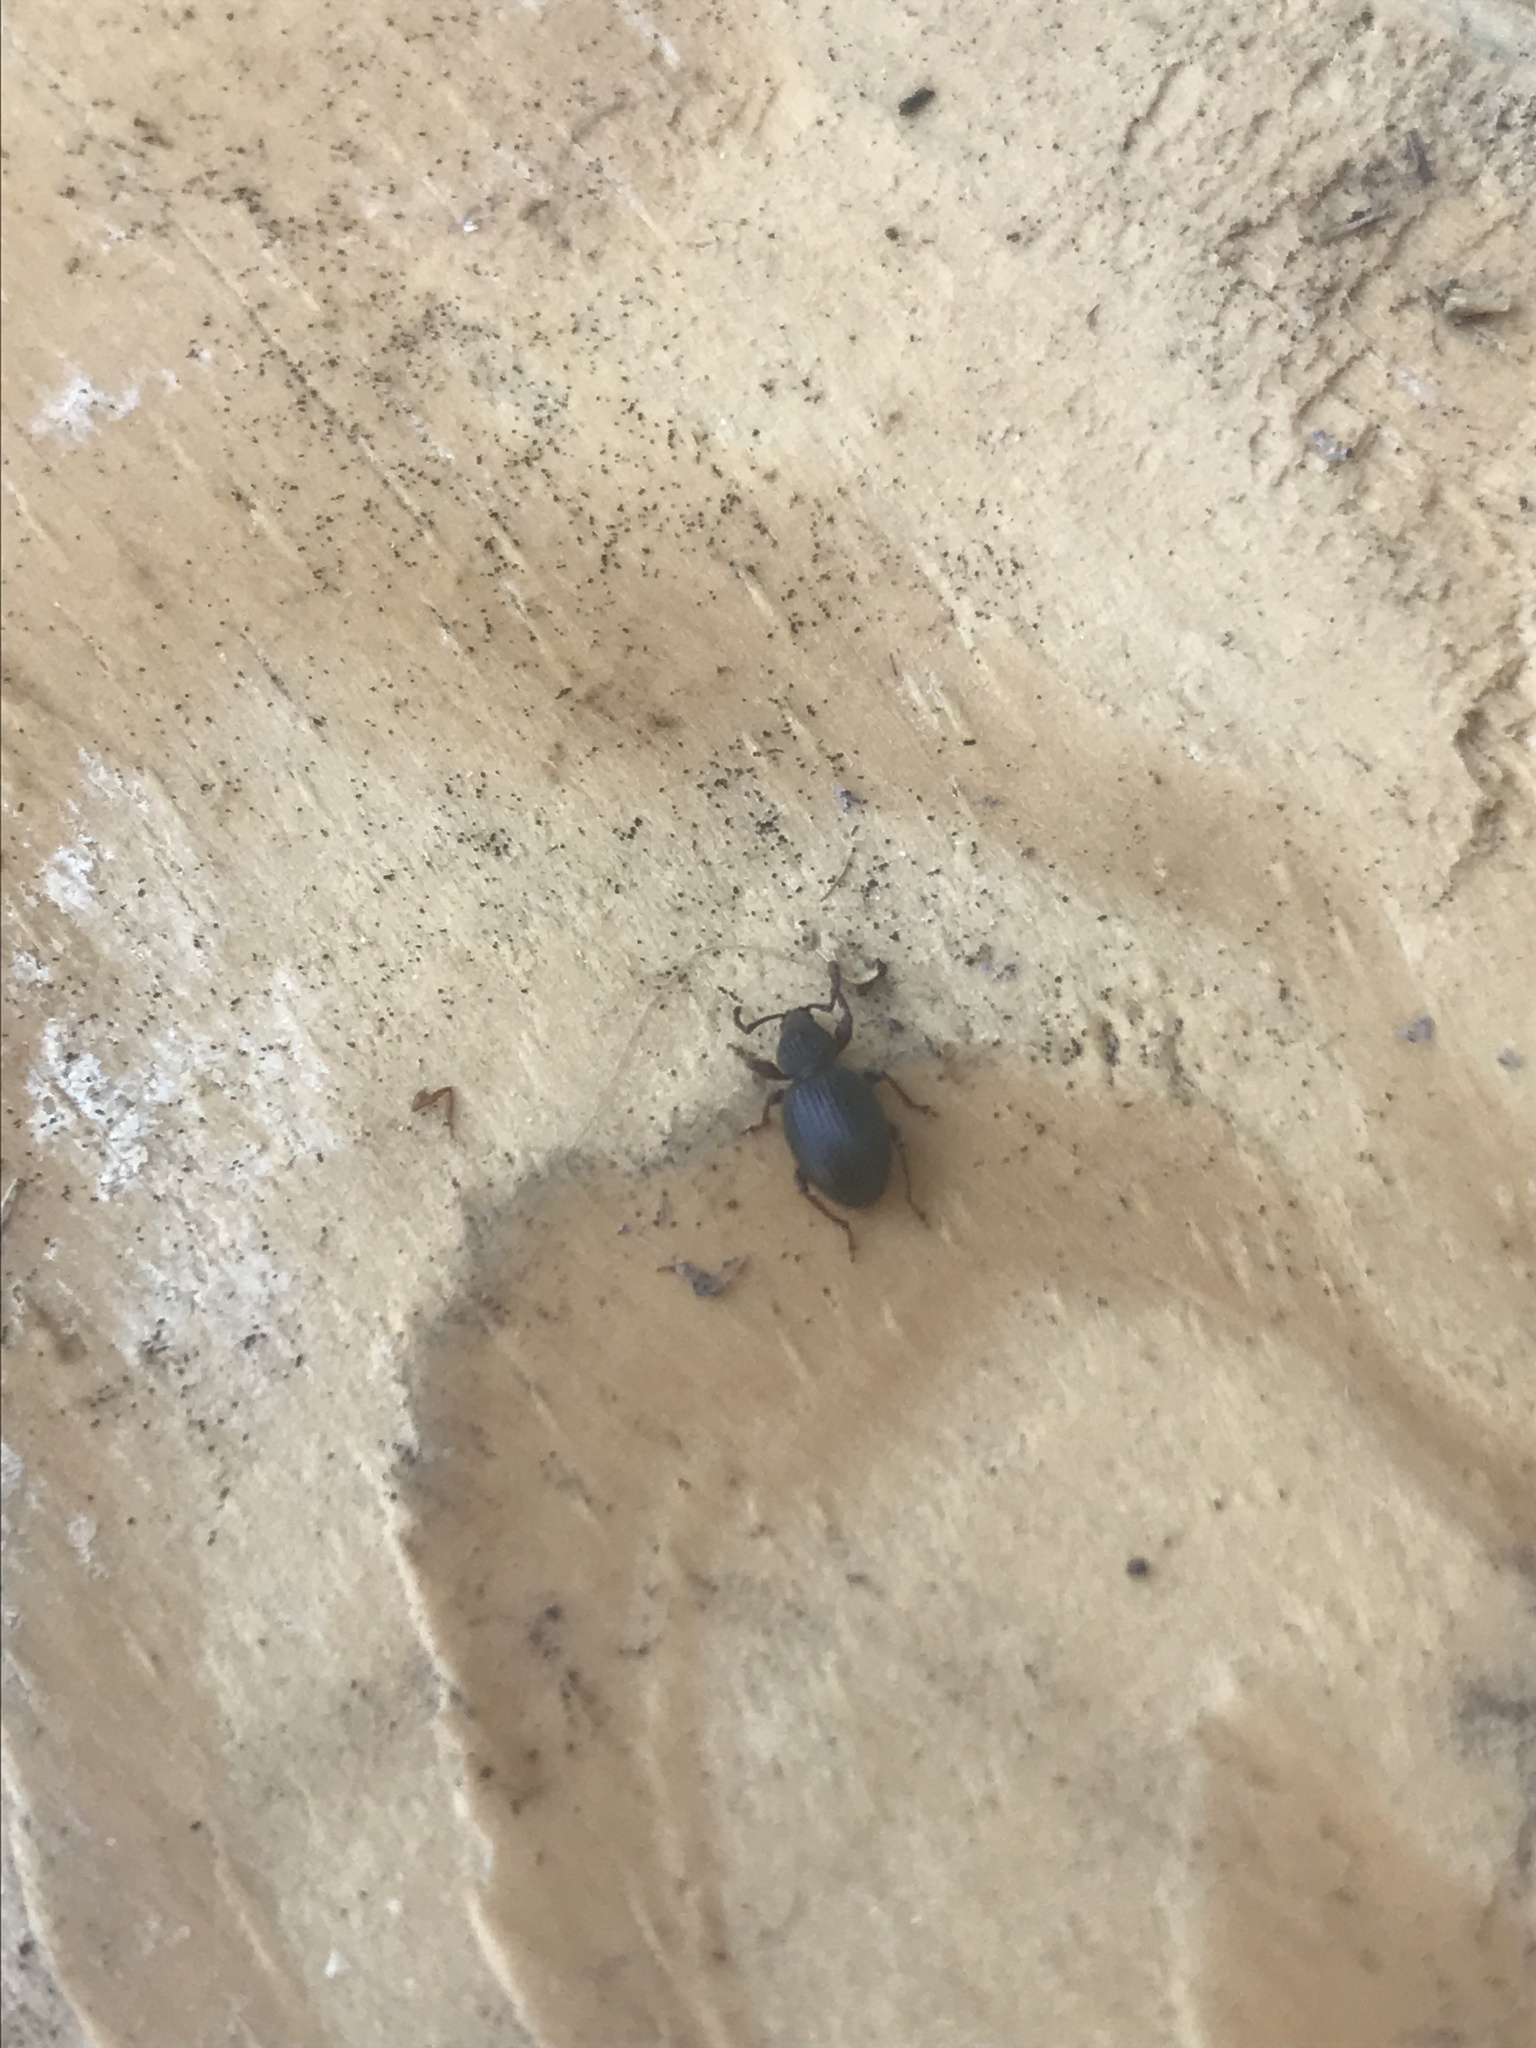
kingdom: Animalia
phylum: Arthropoda
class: Insecta
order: Coleoptera
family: Curculionidae
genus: Otiorhynchus
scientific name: Otiorhynchus ovatus
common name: Strawberry root weevil
